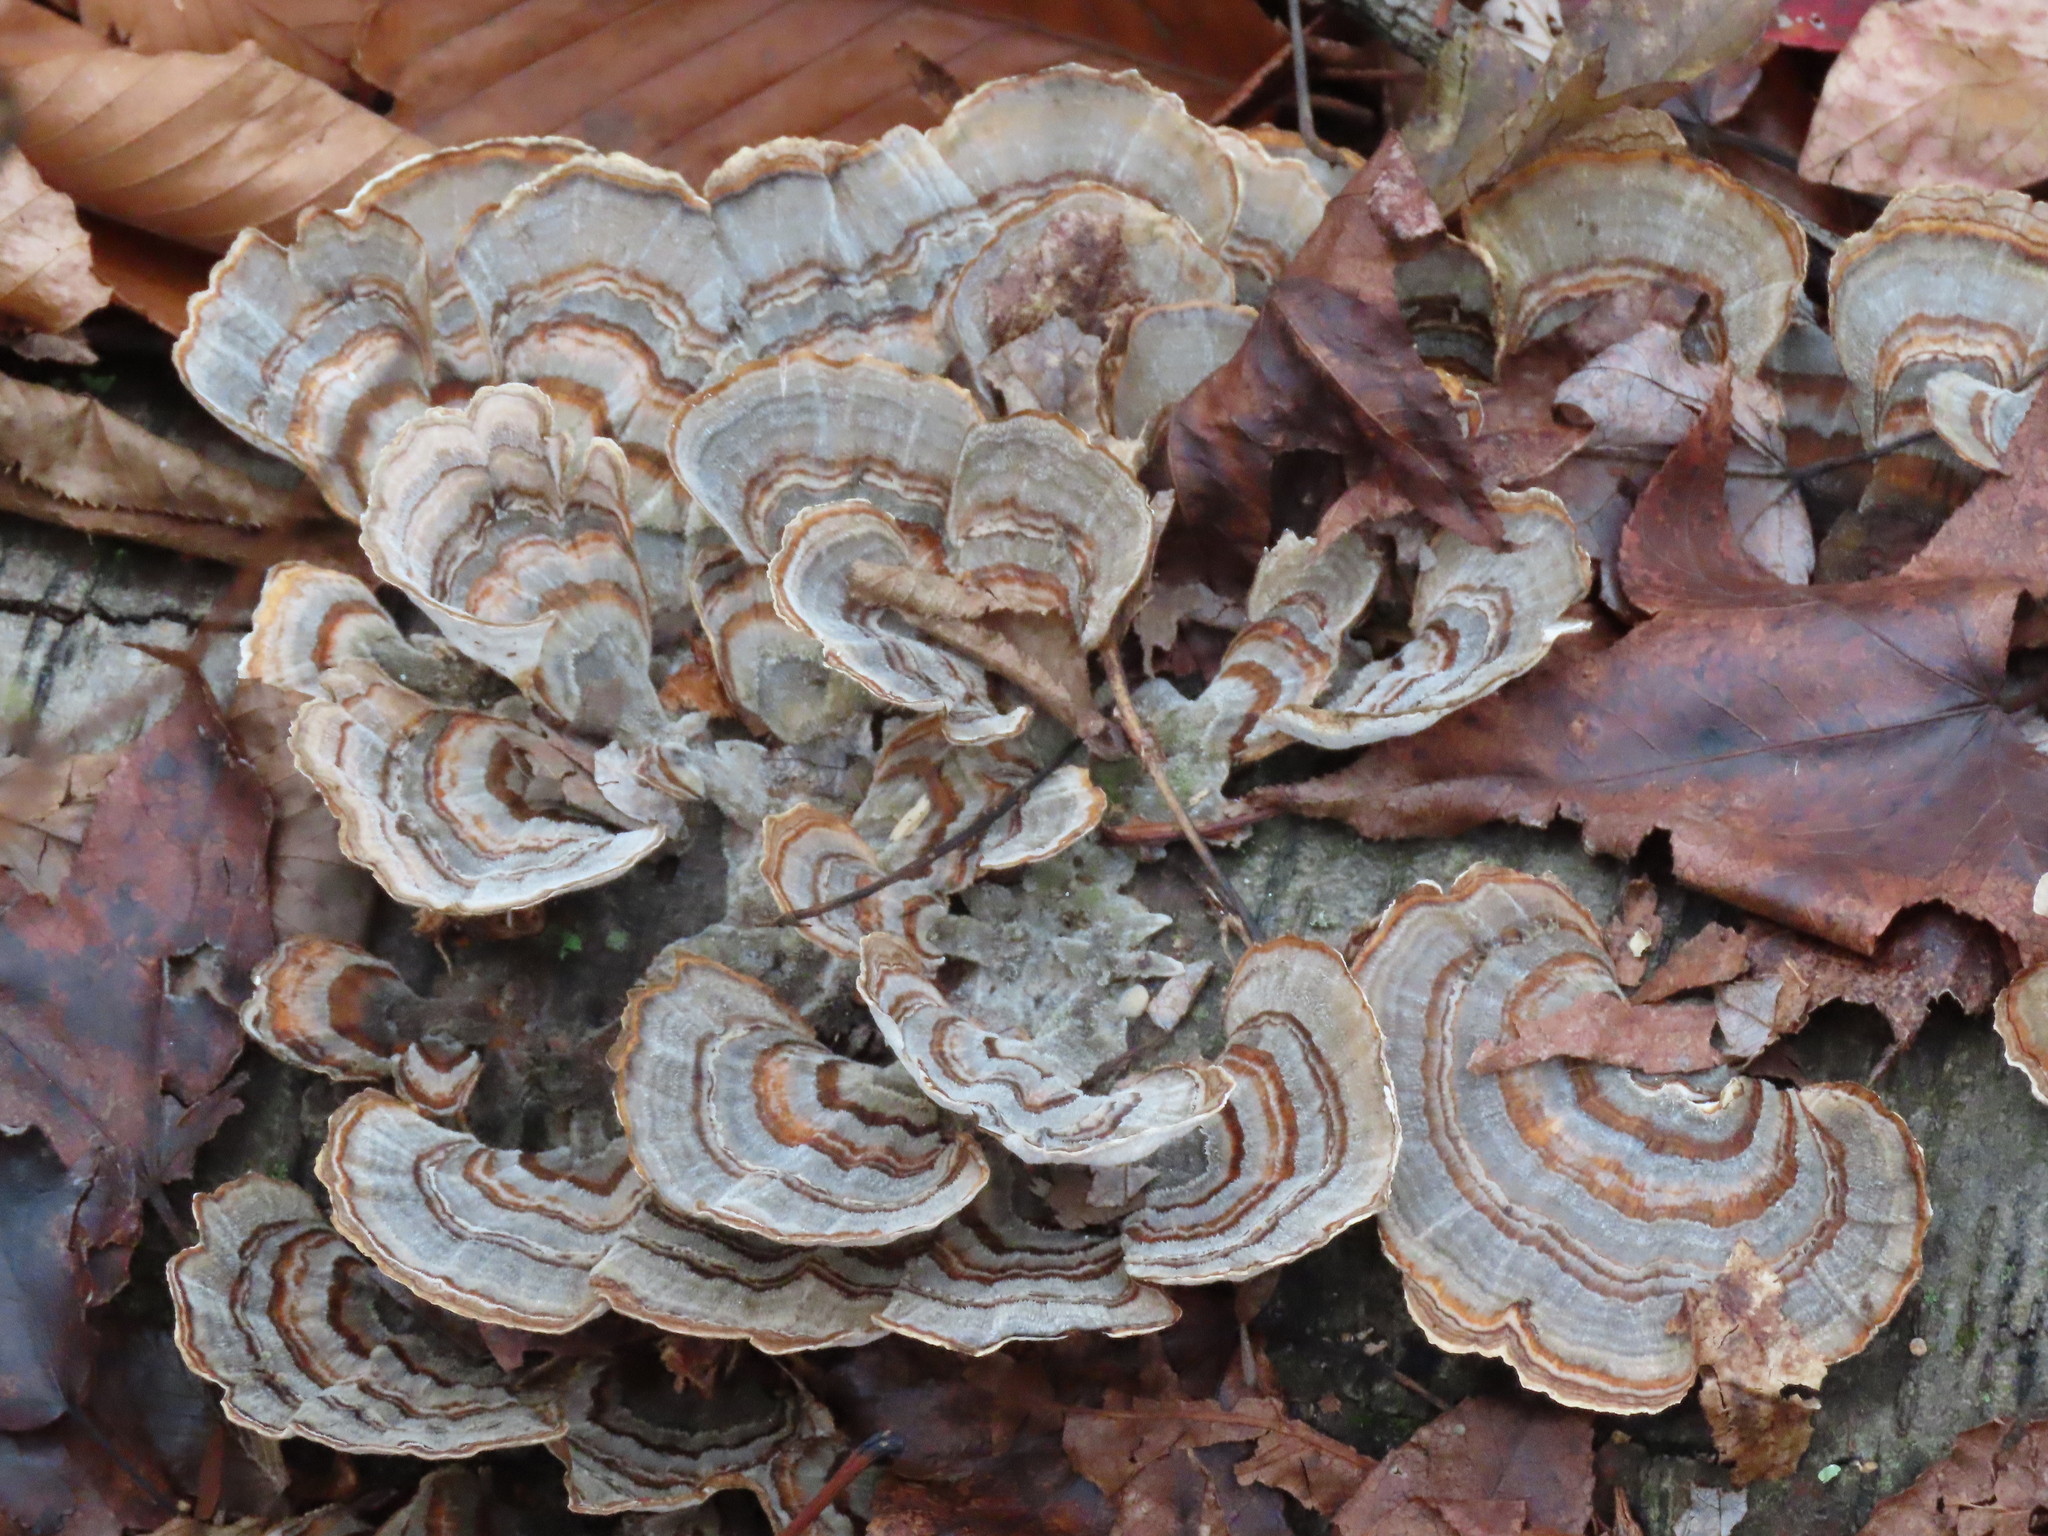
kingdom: Fungi
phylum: Basidiomycota
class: Agaricomycetes
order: Polyporales
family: Polyporaceae
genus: Trametes
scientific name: Trametes versicolor
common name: Turkeytail
